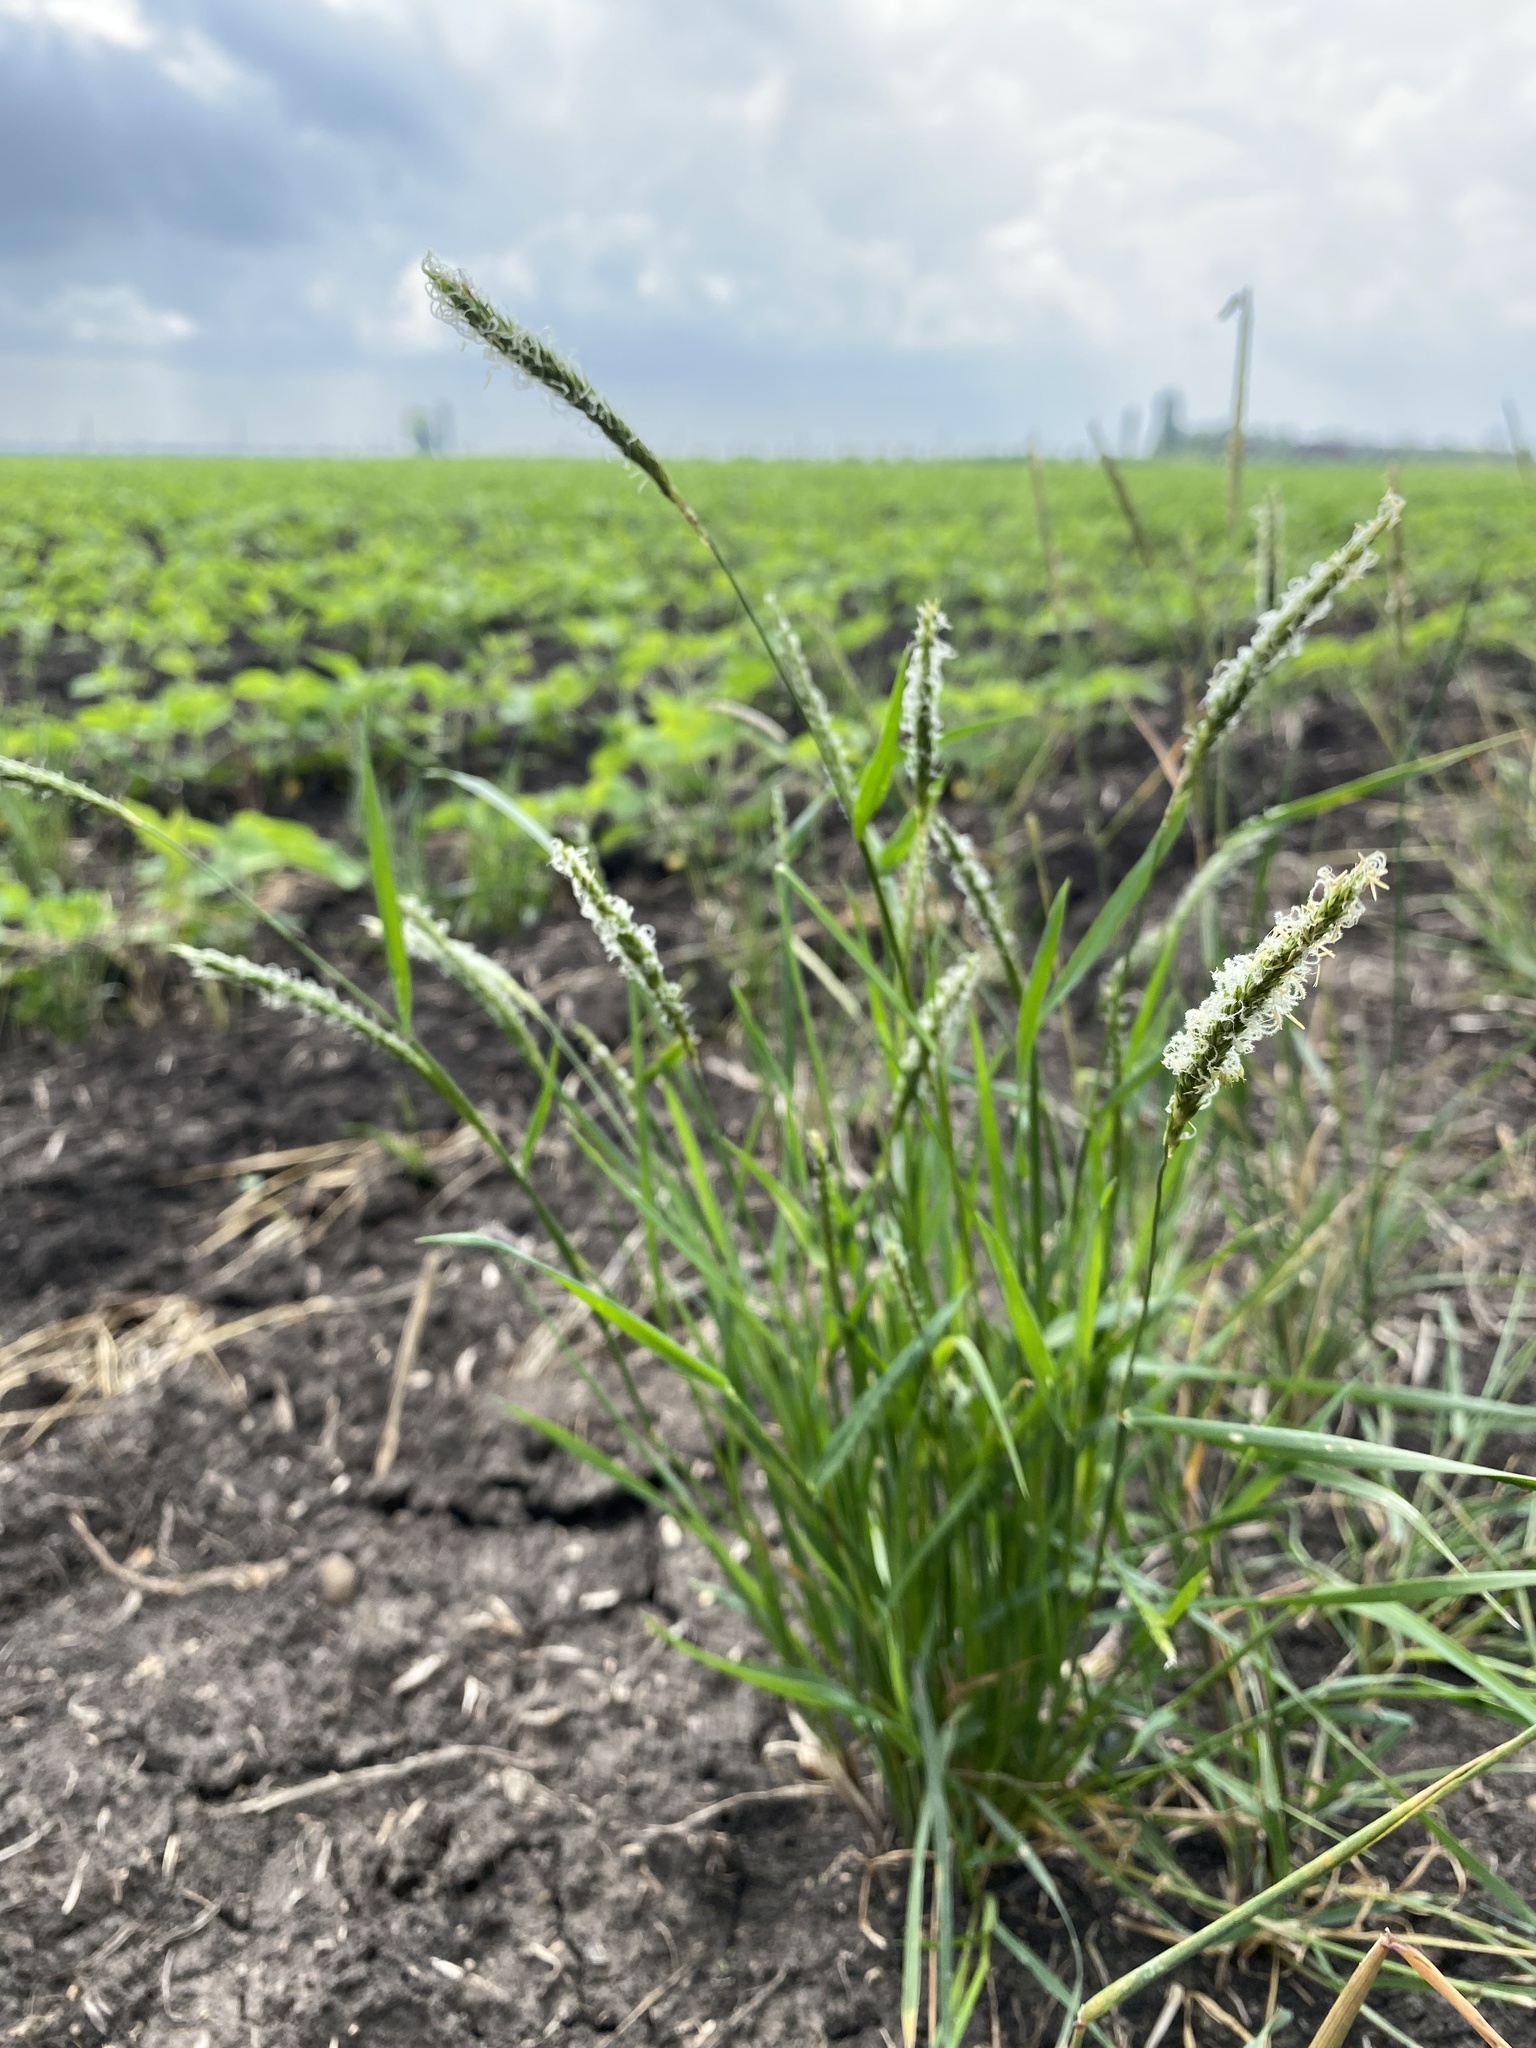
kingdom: Plantae
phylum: Tracheophyta
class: Liliopsida
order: Poales
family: Poaceae
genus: Alopecurus
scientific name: Alopecurus myosuroides
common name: Black-grass
